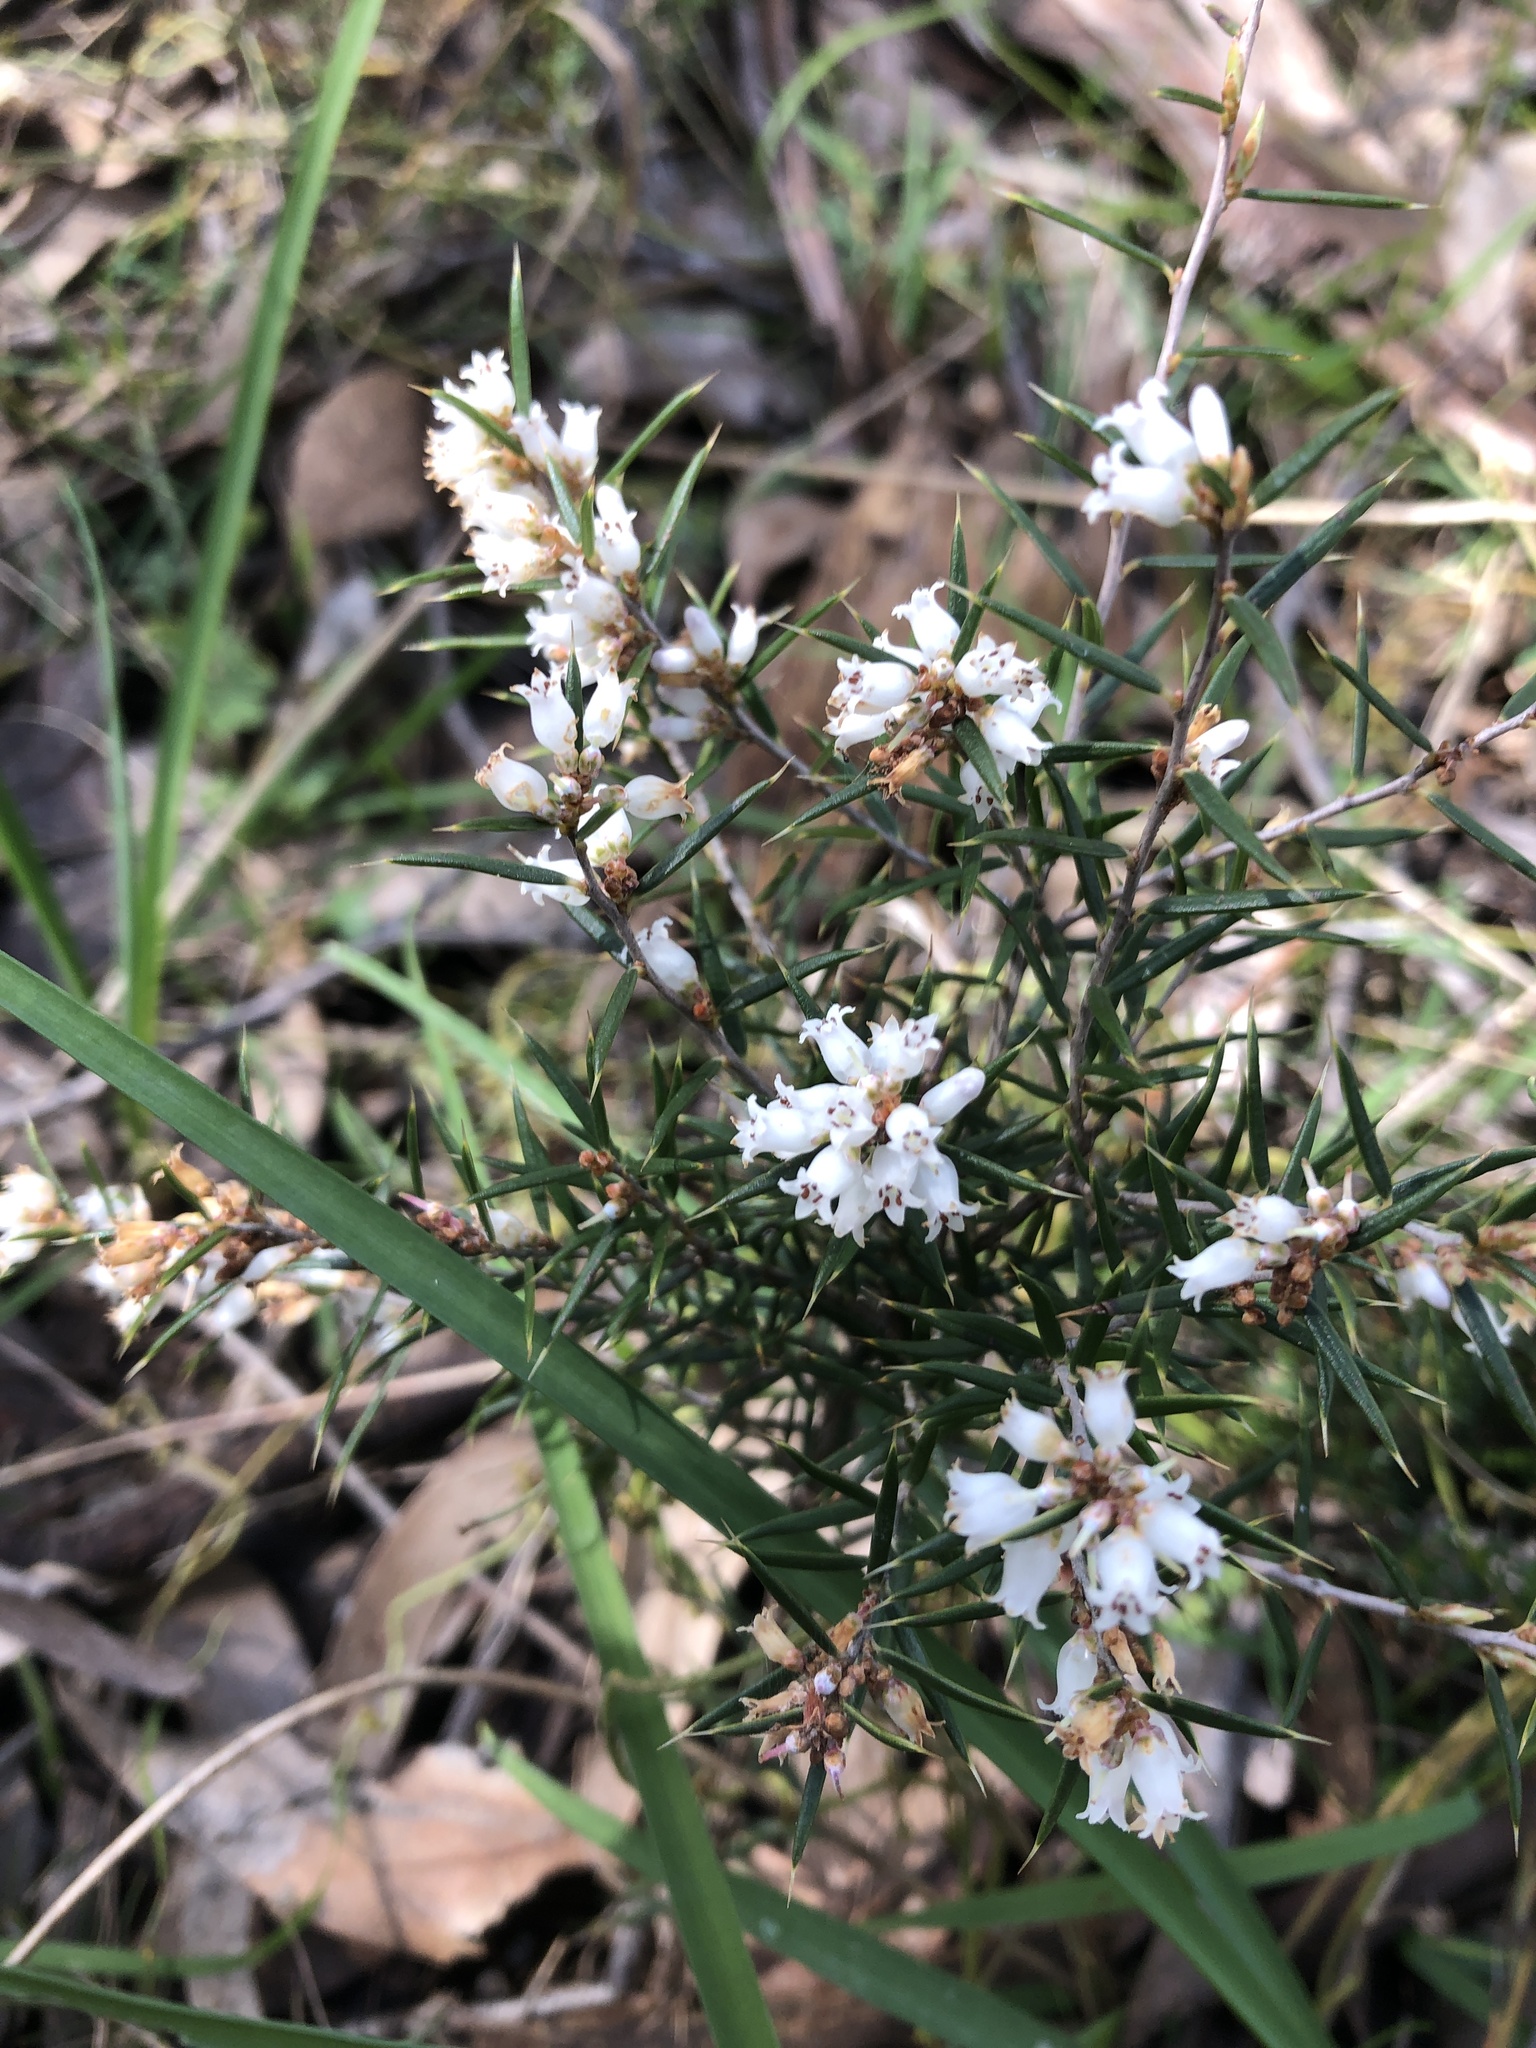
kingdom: Plantae
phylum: Tracheophyta
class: Magnoliopsida
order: Ericales
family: Ericaceae
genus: Lissanthe
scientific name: Lissanthe strigosa
